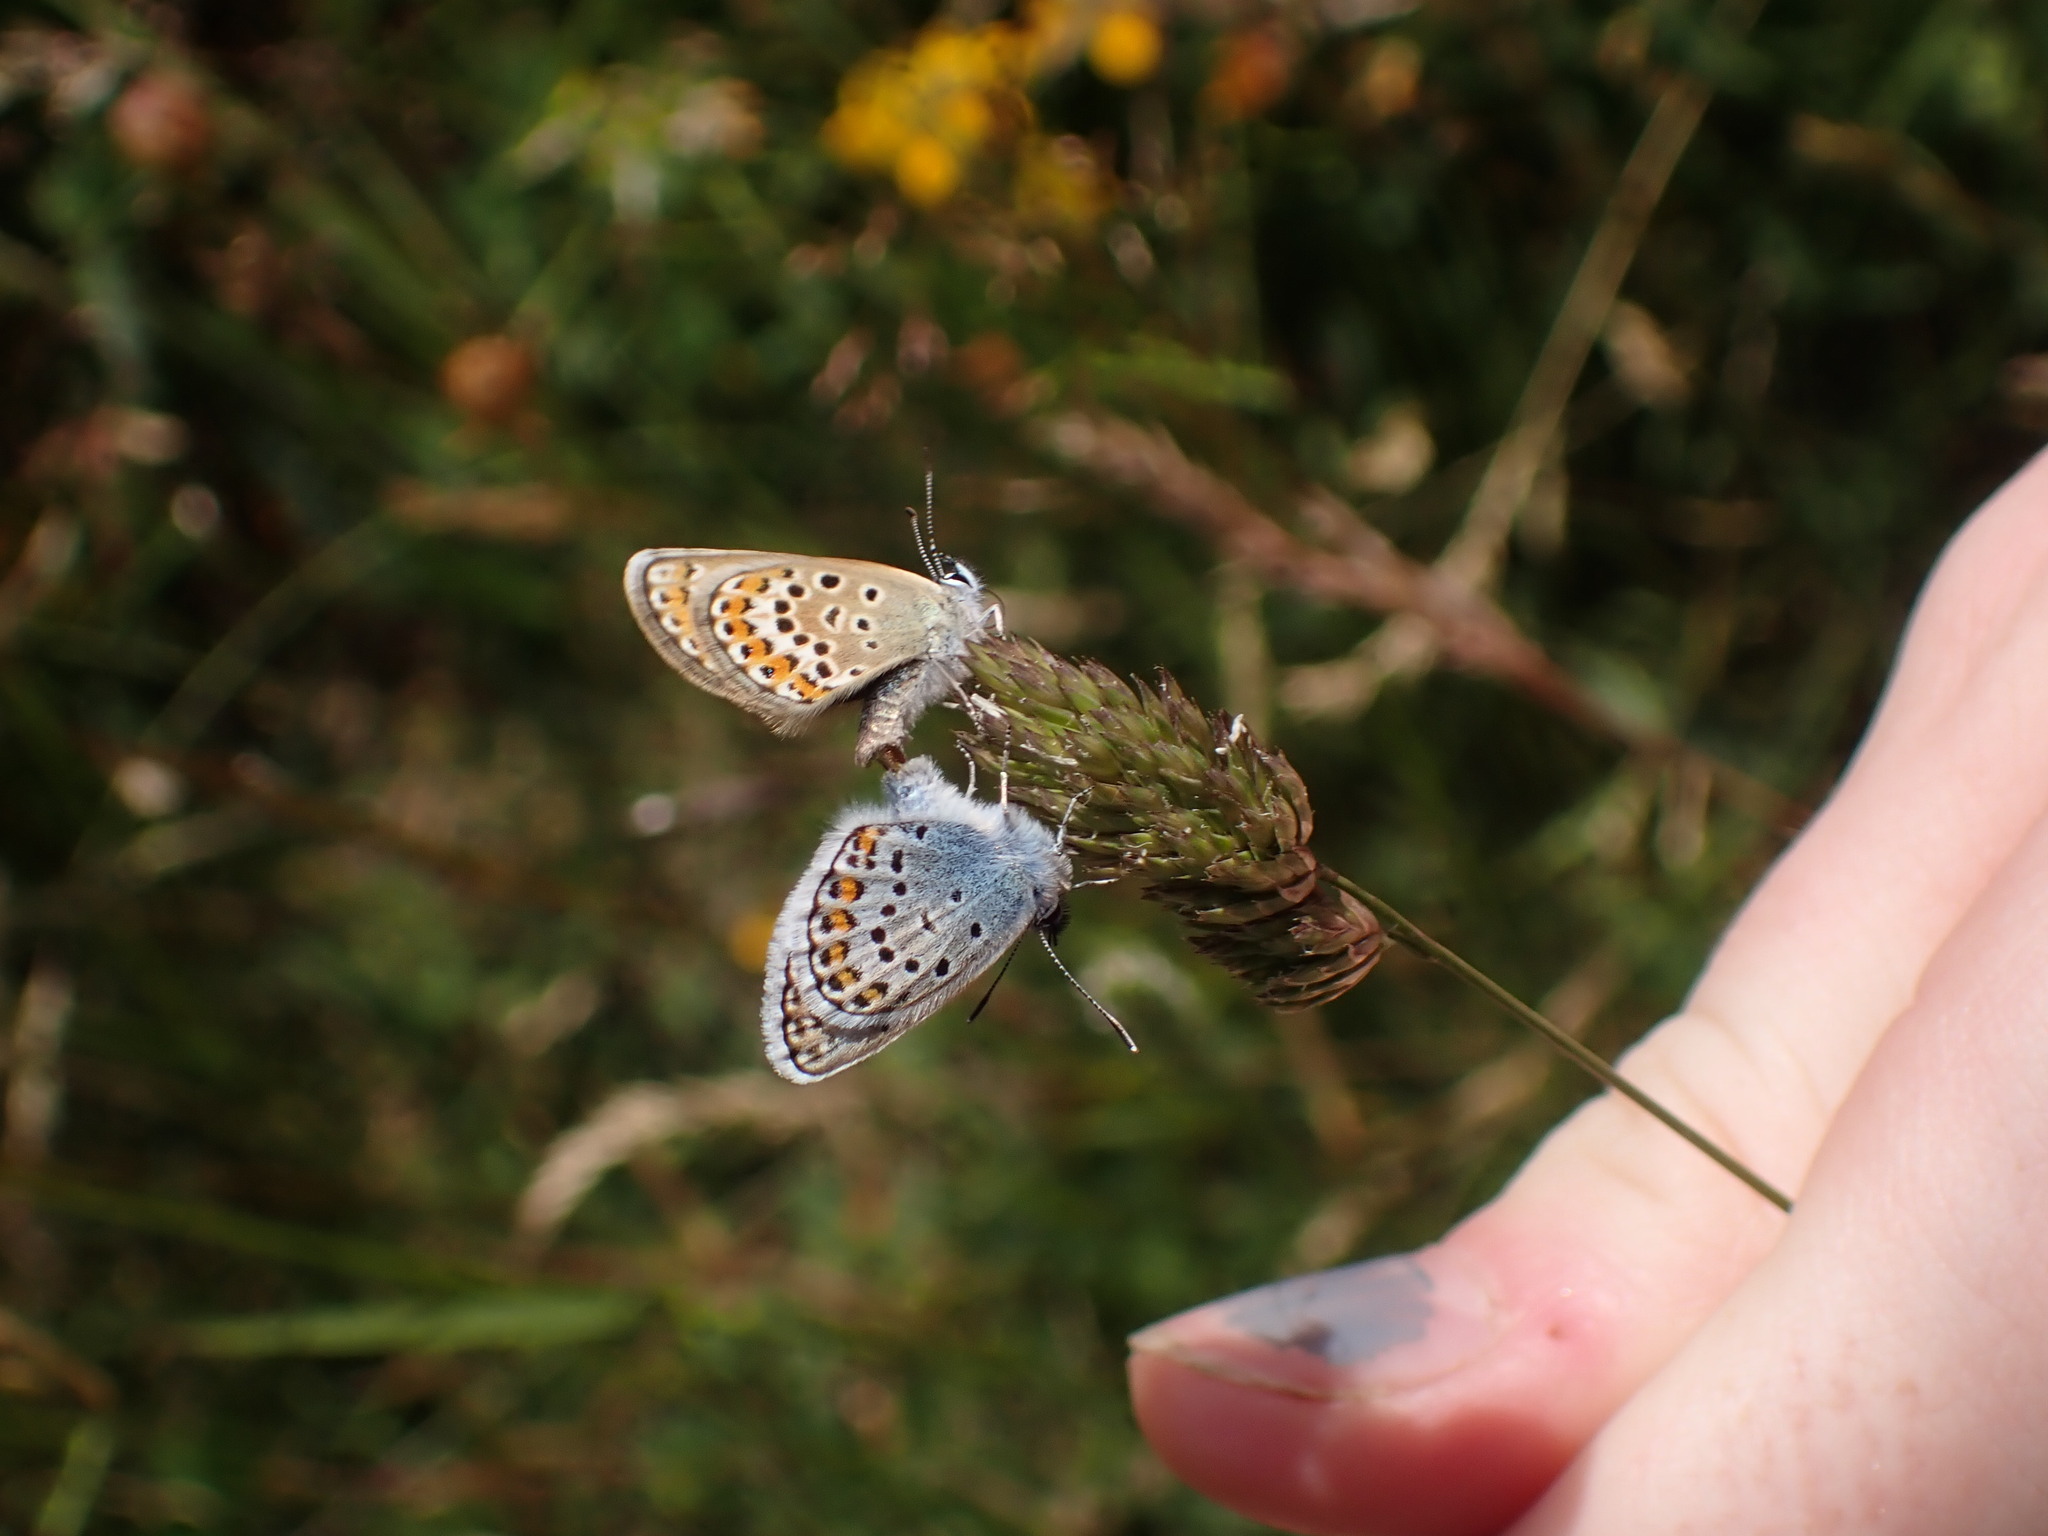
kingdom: Animalia
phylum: Arthropoda
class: Insecta
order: Lepidoptera
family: Lycaenidae
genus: Plebejus
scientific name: Plebejus argus
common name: Silver-studded blue
